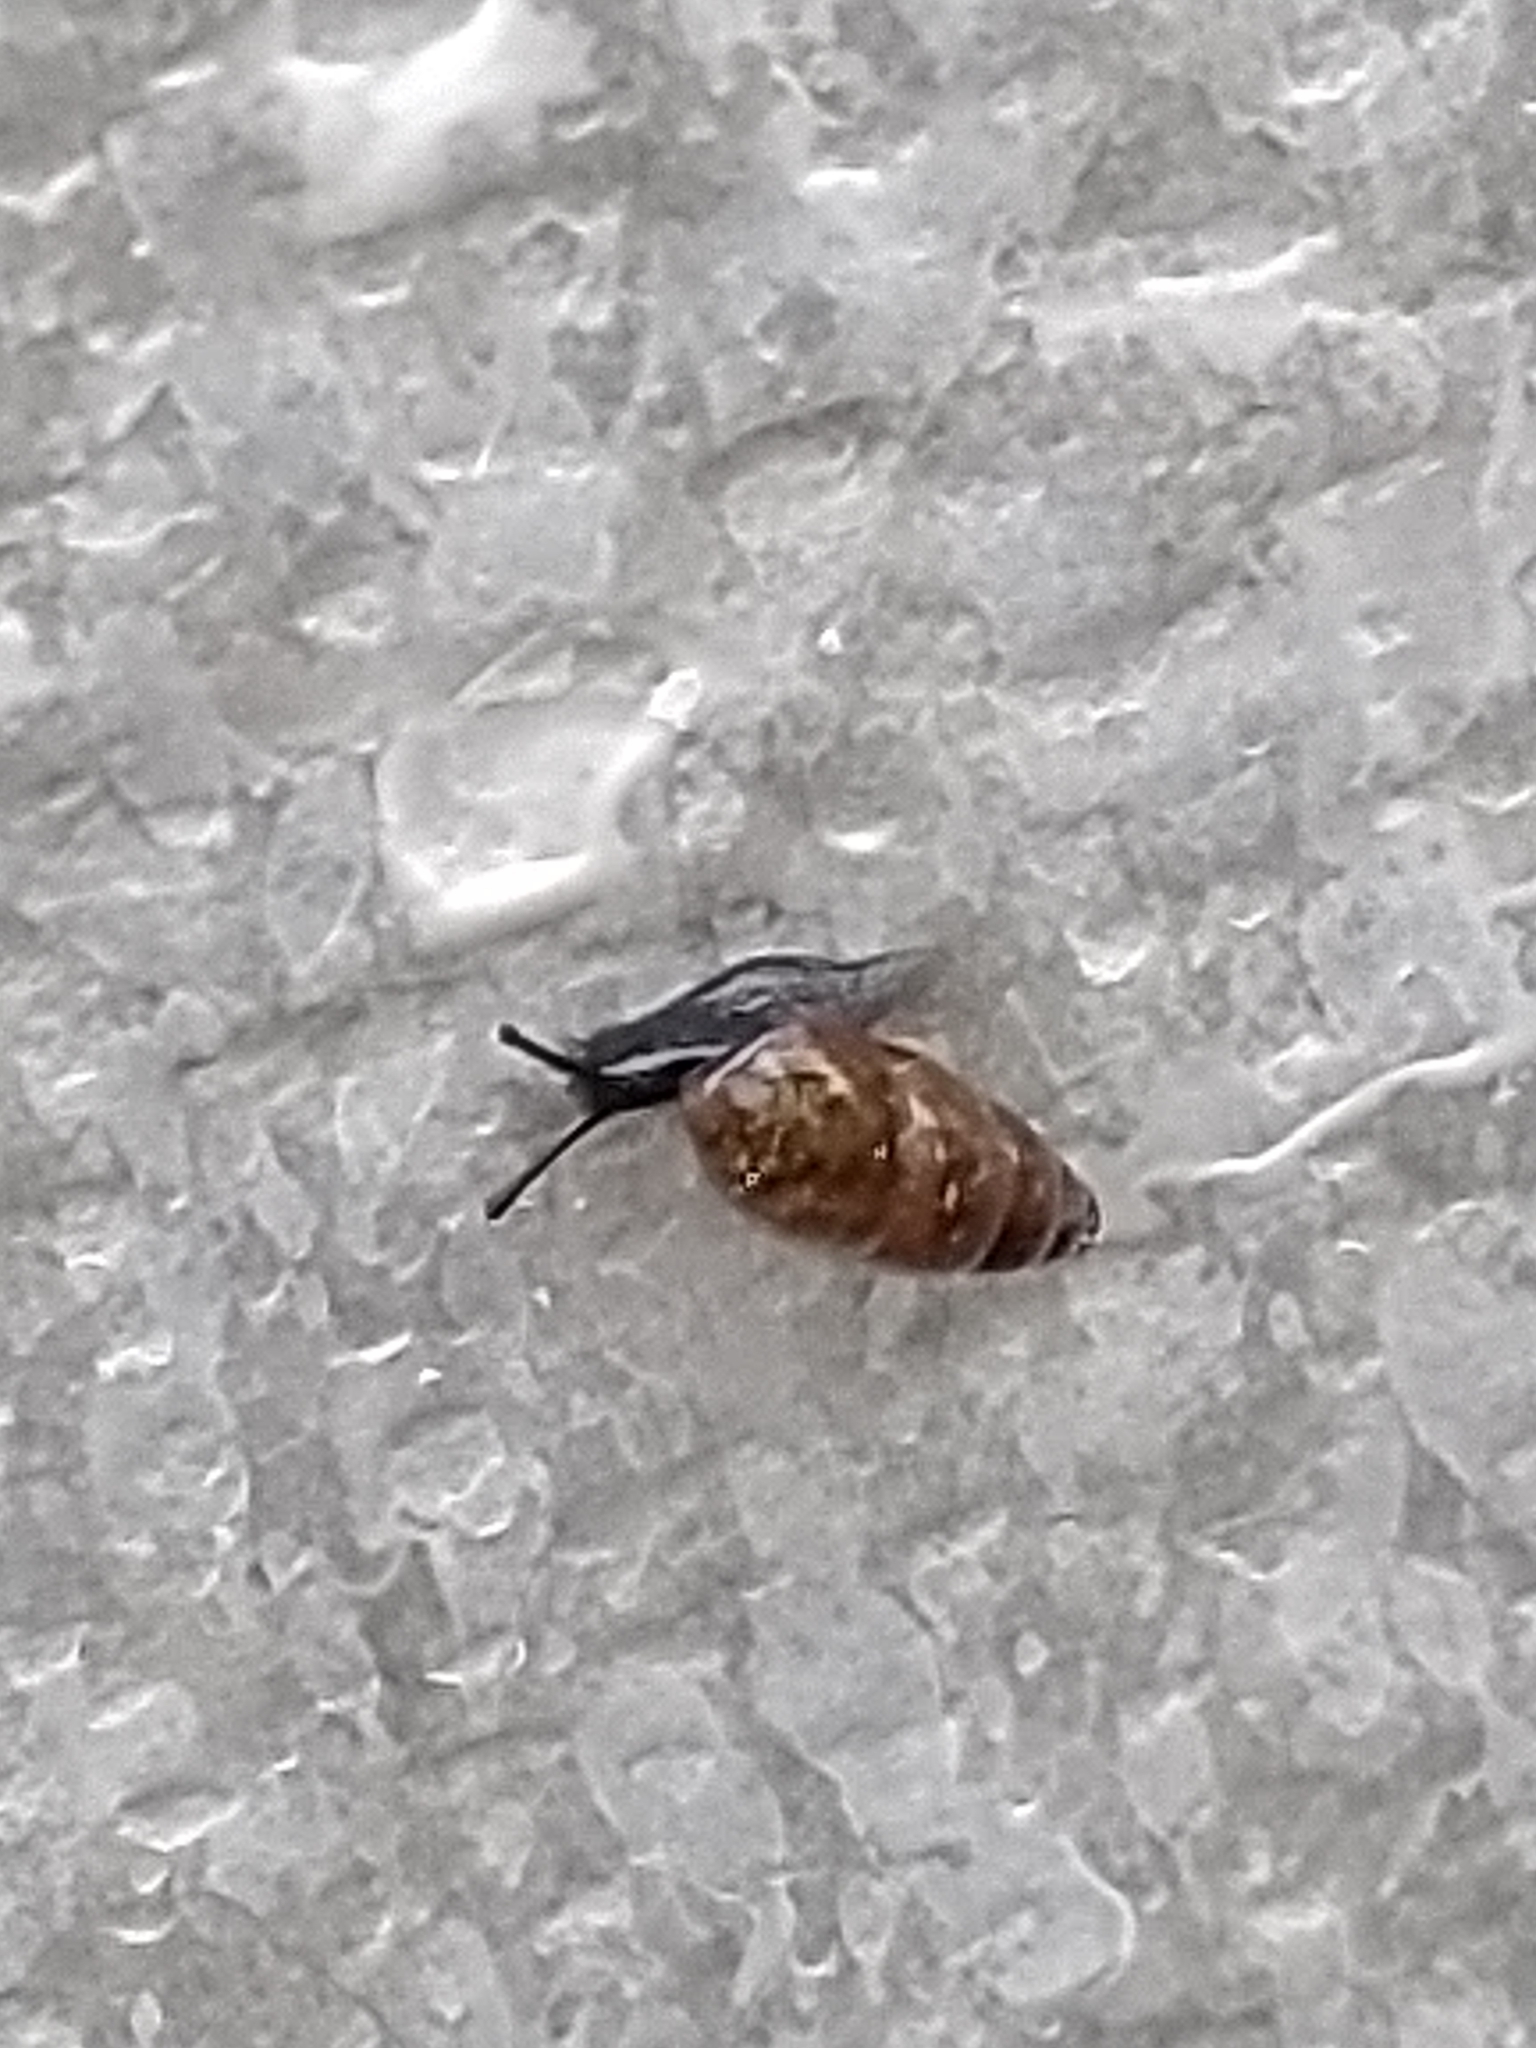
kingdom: Animalia
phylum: Mollusca
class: Gastropoda
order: Stylommatophora
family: Cochlicopidae
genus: Cochlicopa
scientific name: Cochlicopa lubrica
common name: Glossy pillar snail
